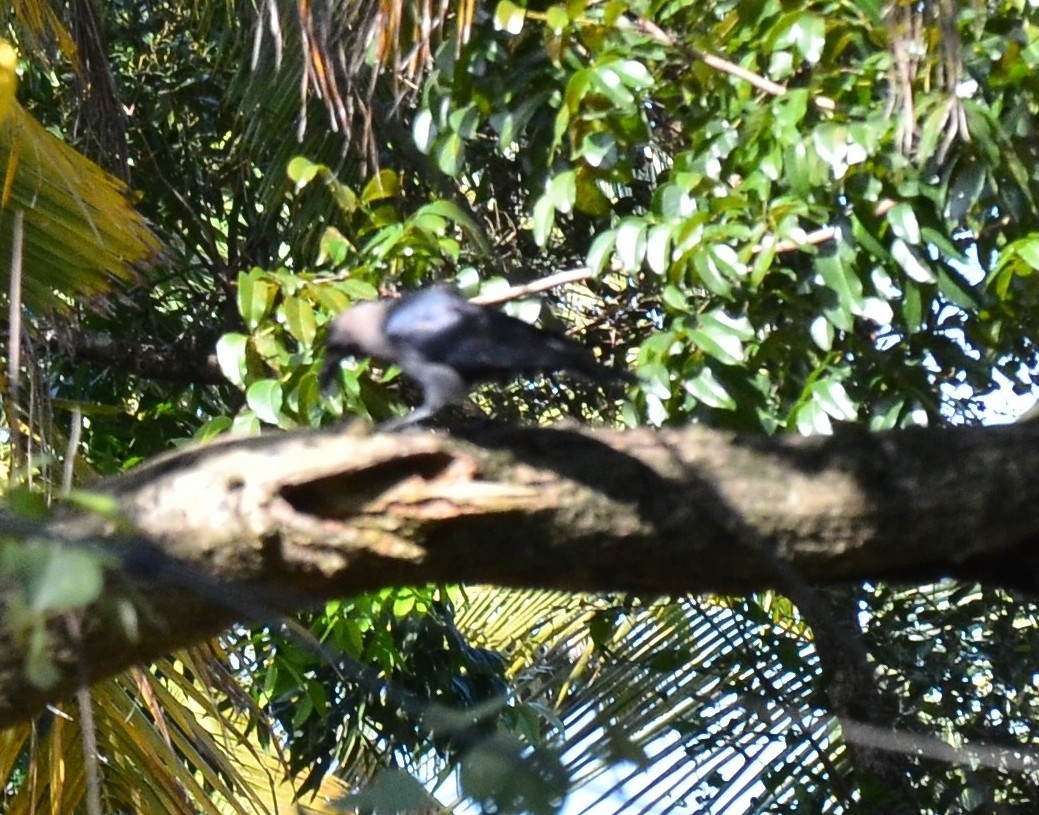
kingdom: Animalia
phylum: Chordata
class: Aves
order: Passeriformes
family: Corvidae
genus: Corvus
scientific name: Corvus splendens
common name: House crow
